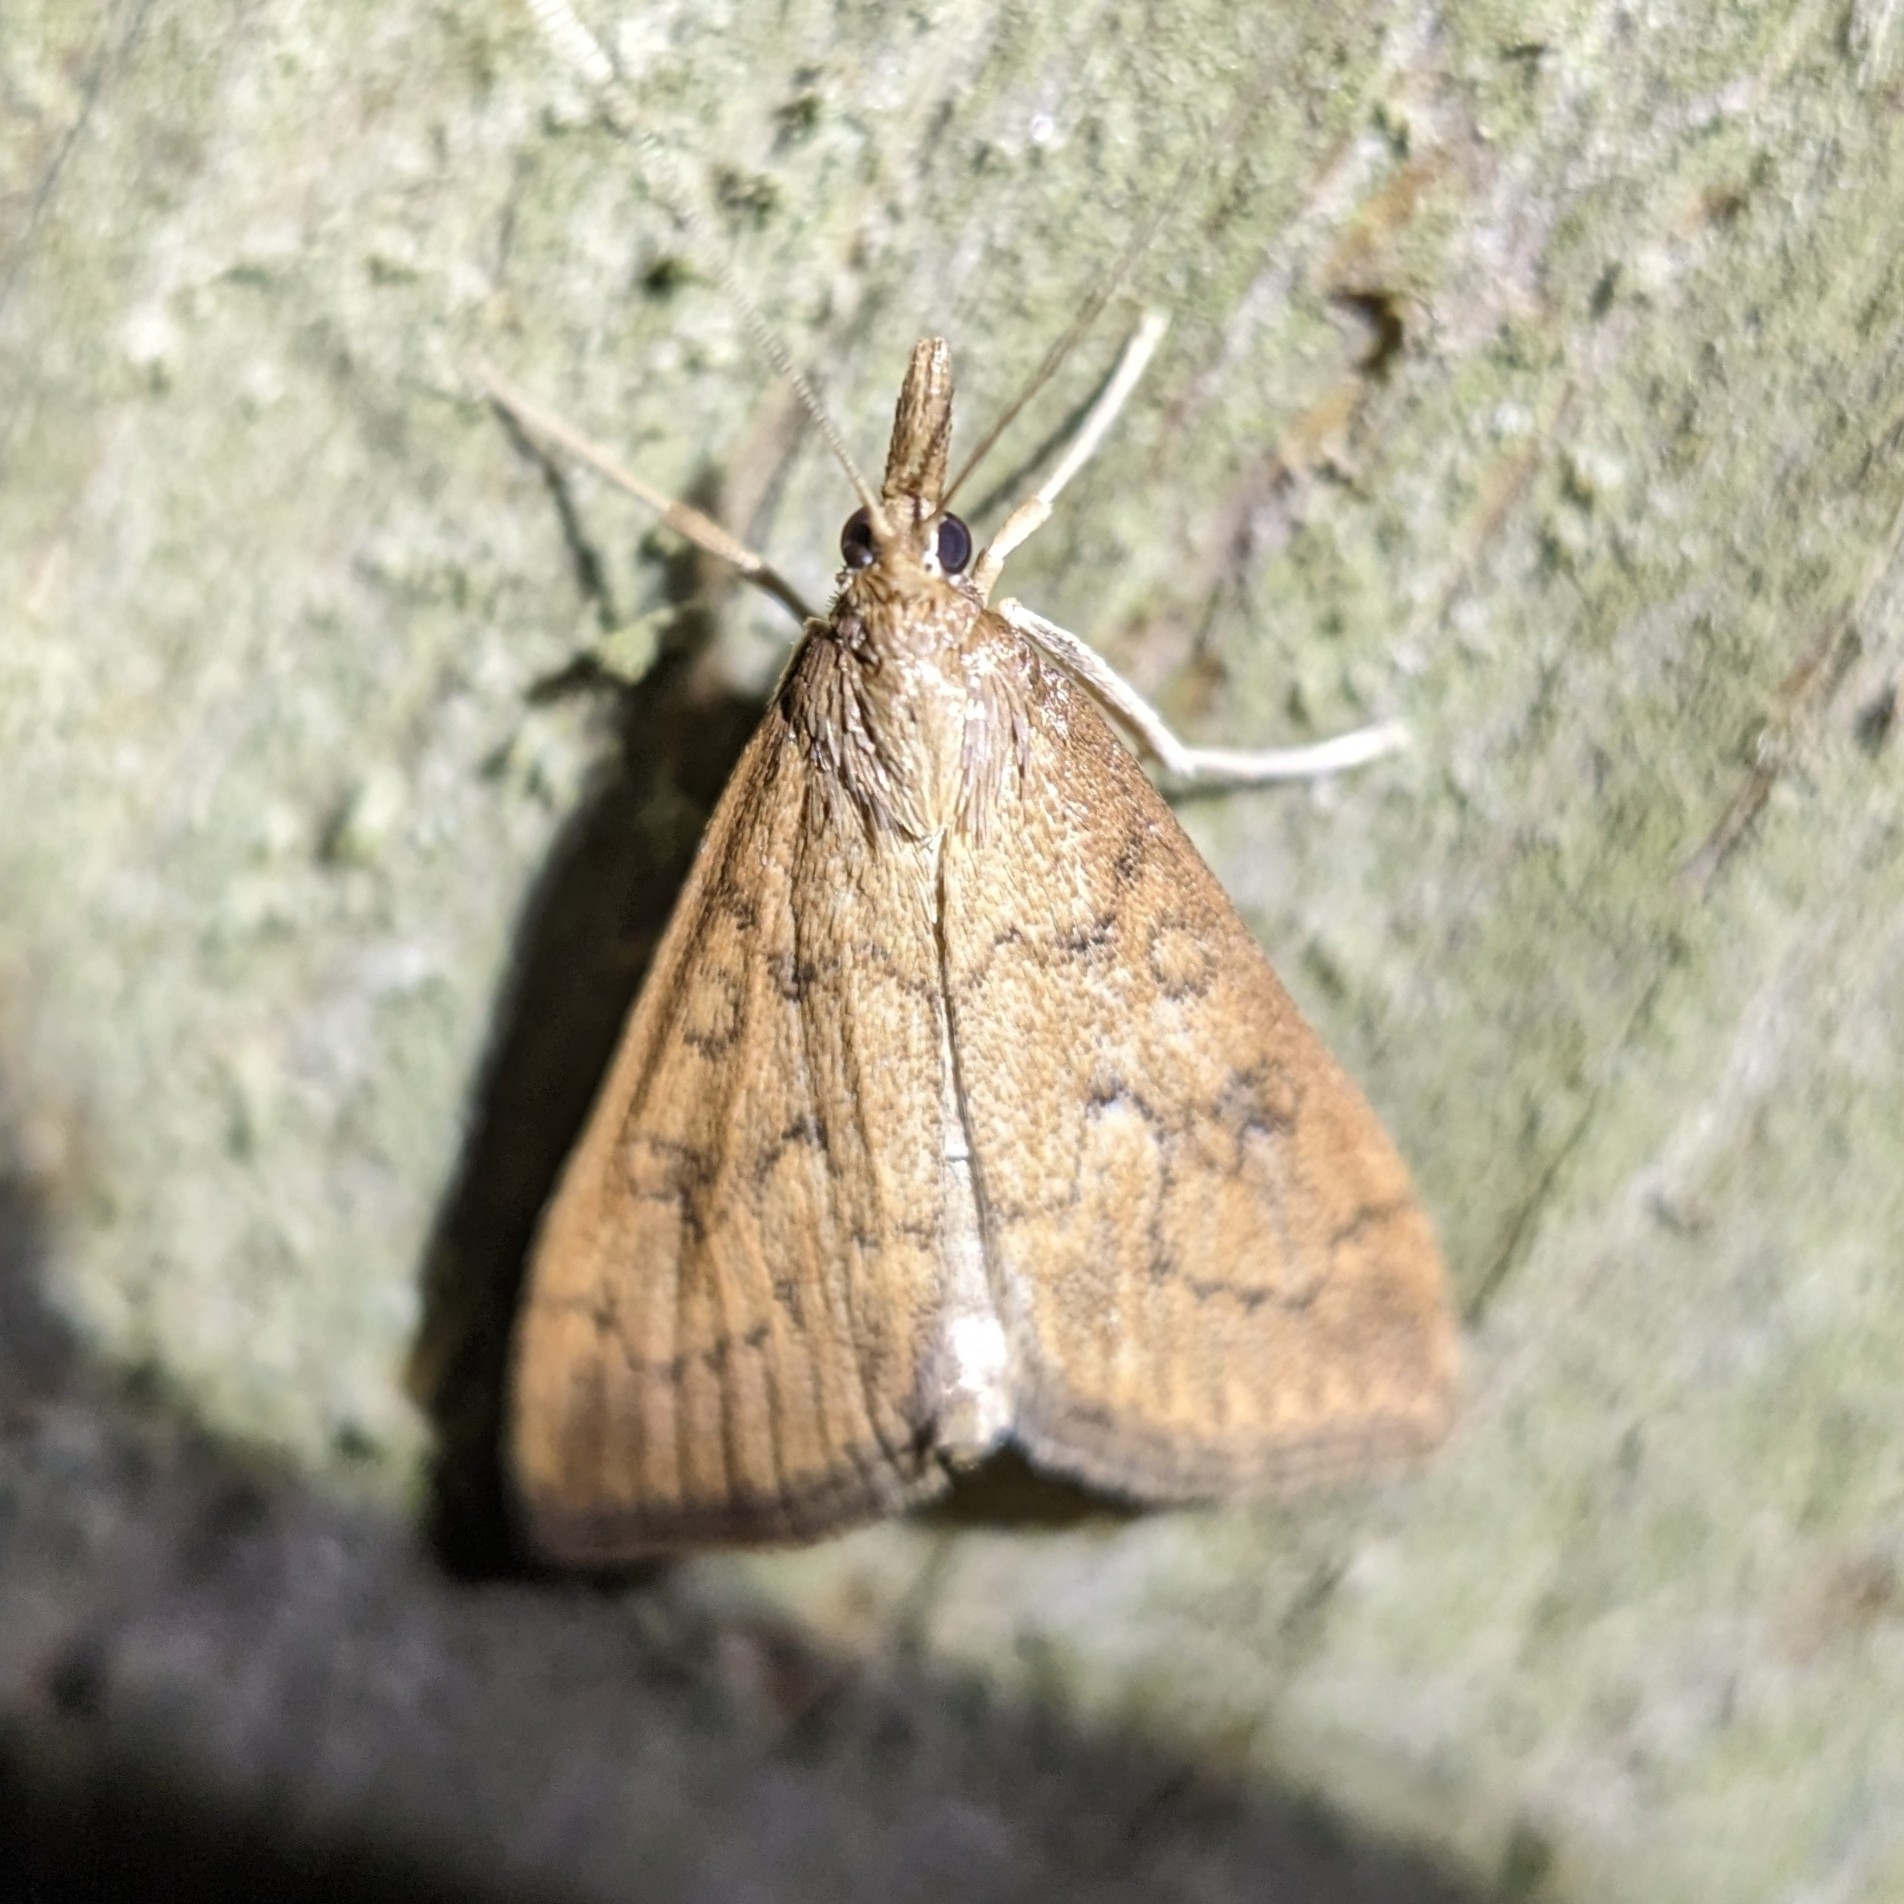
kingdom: Animalia
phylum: Arthropoda
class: Insecta
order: Lepidoptera
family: Crambidae
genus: Udea
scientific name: Udea rubigalis
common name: Celery leaftier moth
